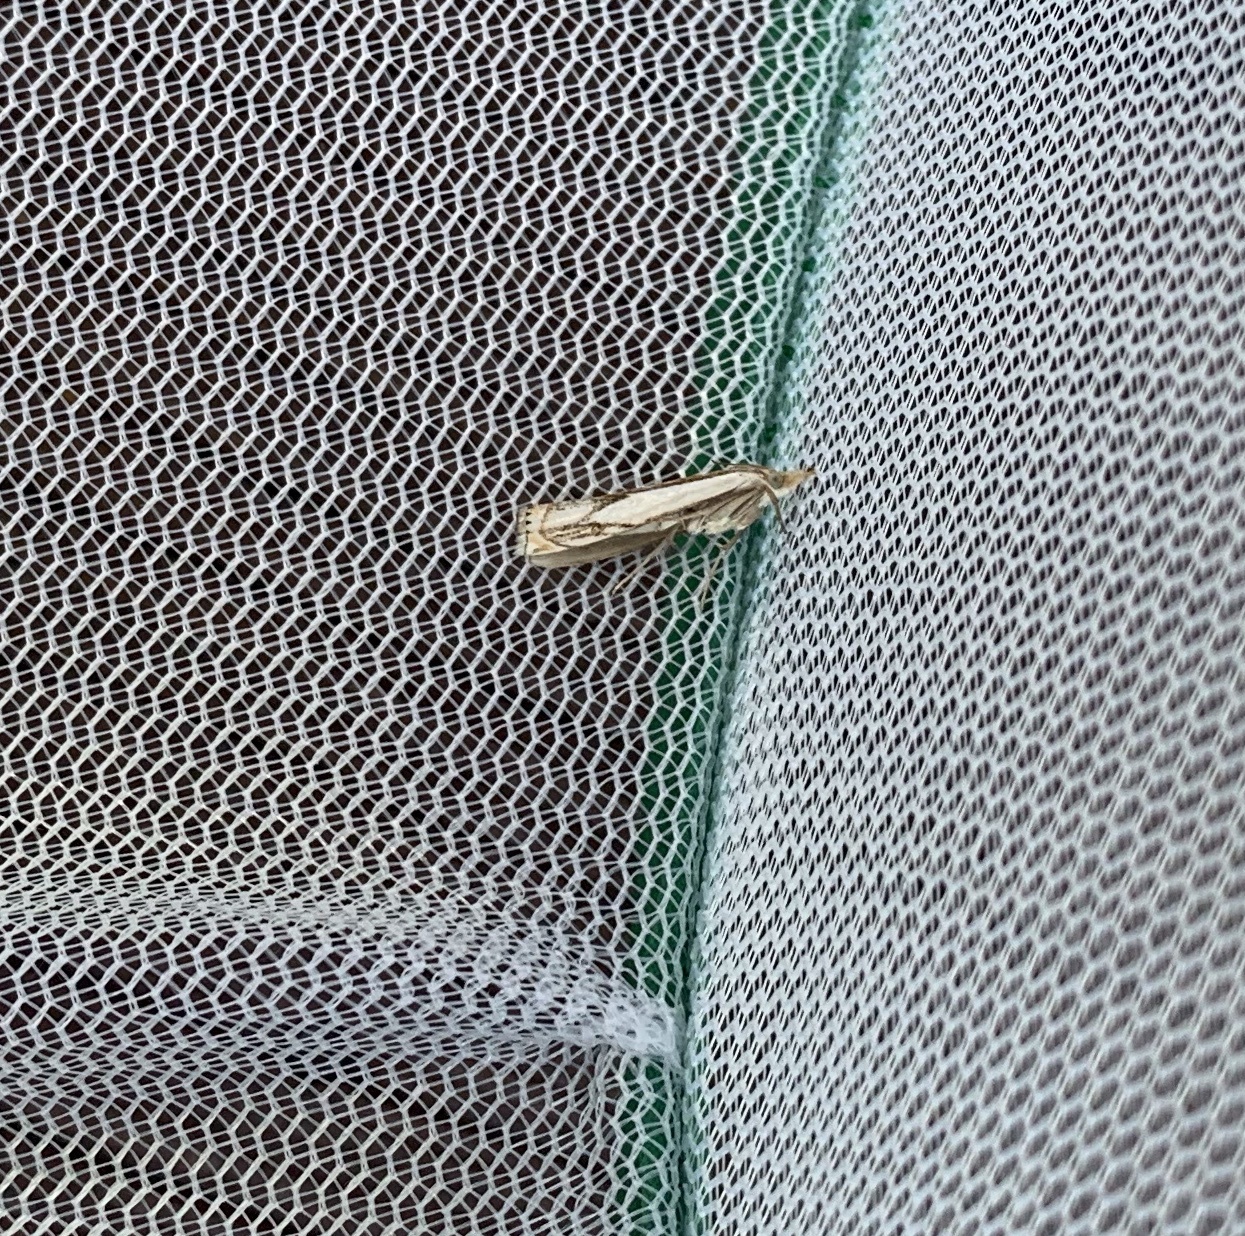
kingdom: Animalia
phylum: Arthropoda
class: Insecta
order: Lepidoptera
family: Crambidae
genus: Crambus
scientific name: Crambus agitatellus
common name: Double-banded grass-veneer
